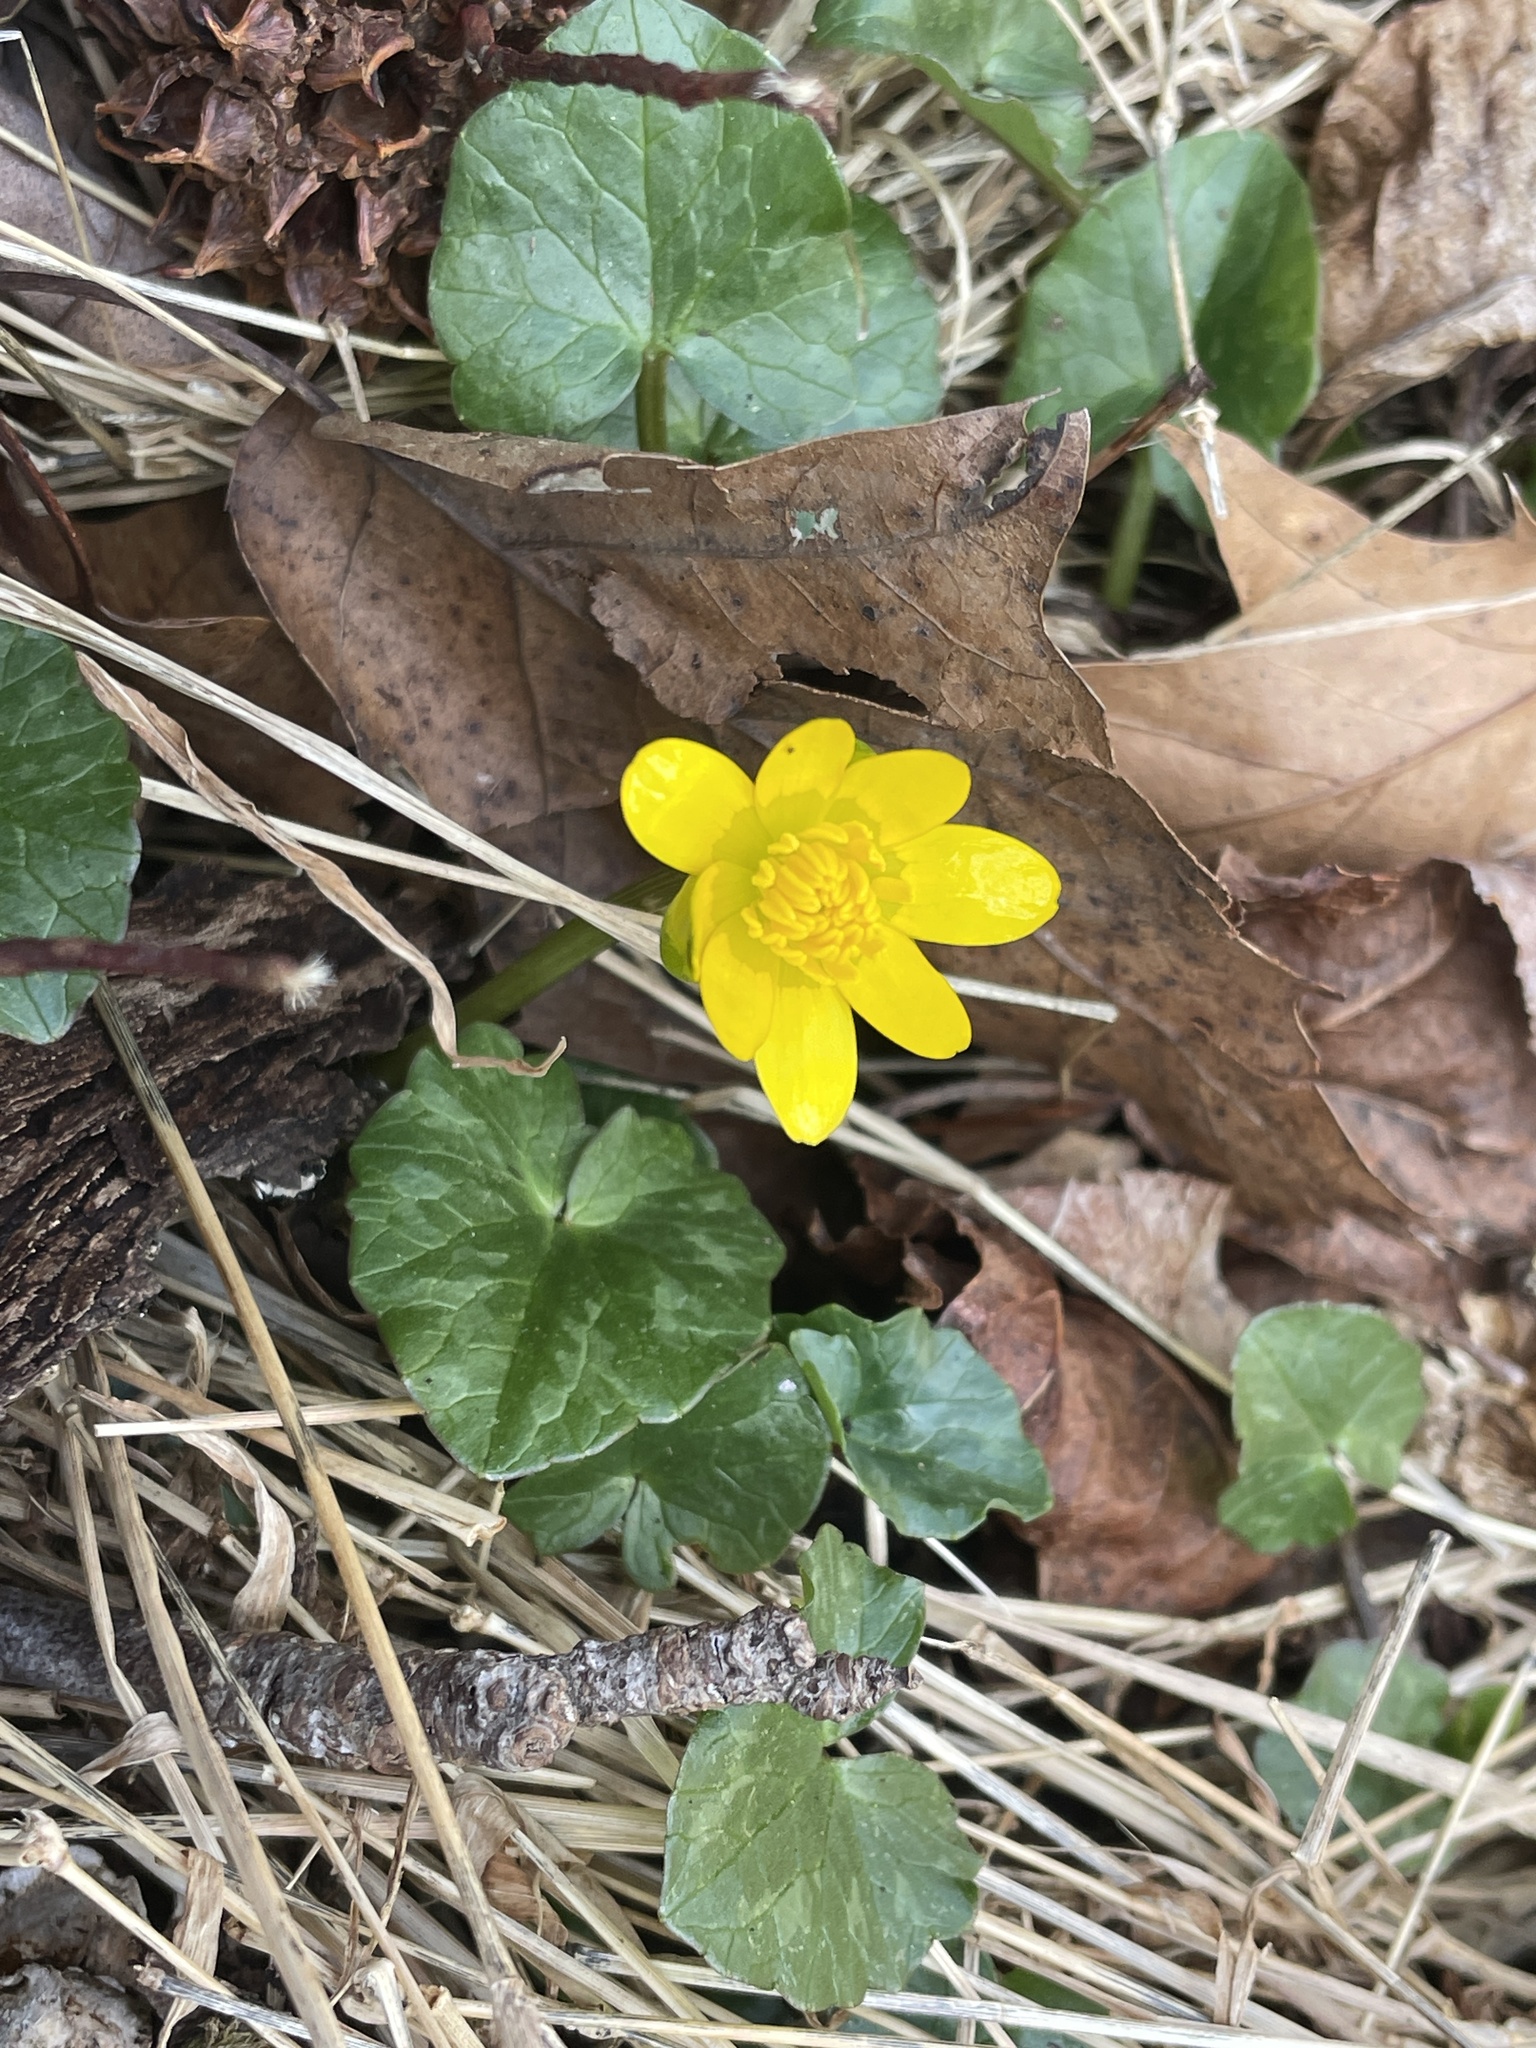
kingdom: Plantae
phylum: Tracheophyta
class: Magnoliopsida
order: Ranunculales
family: Ranunculaceae
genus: Ficaria
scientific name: Ficaria verna
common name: Lesser celandine
